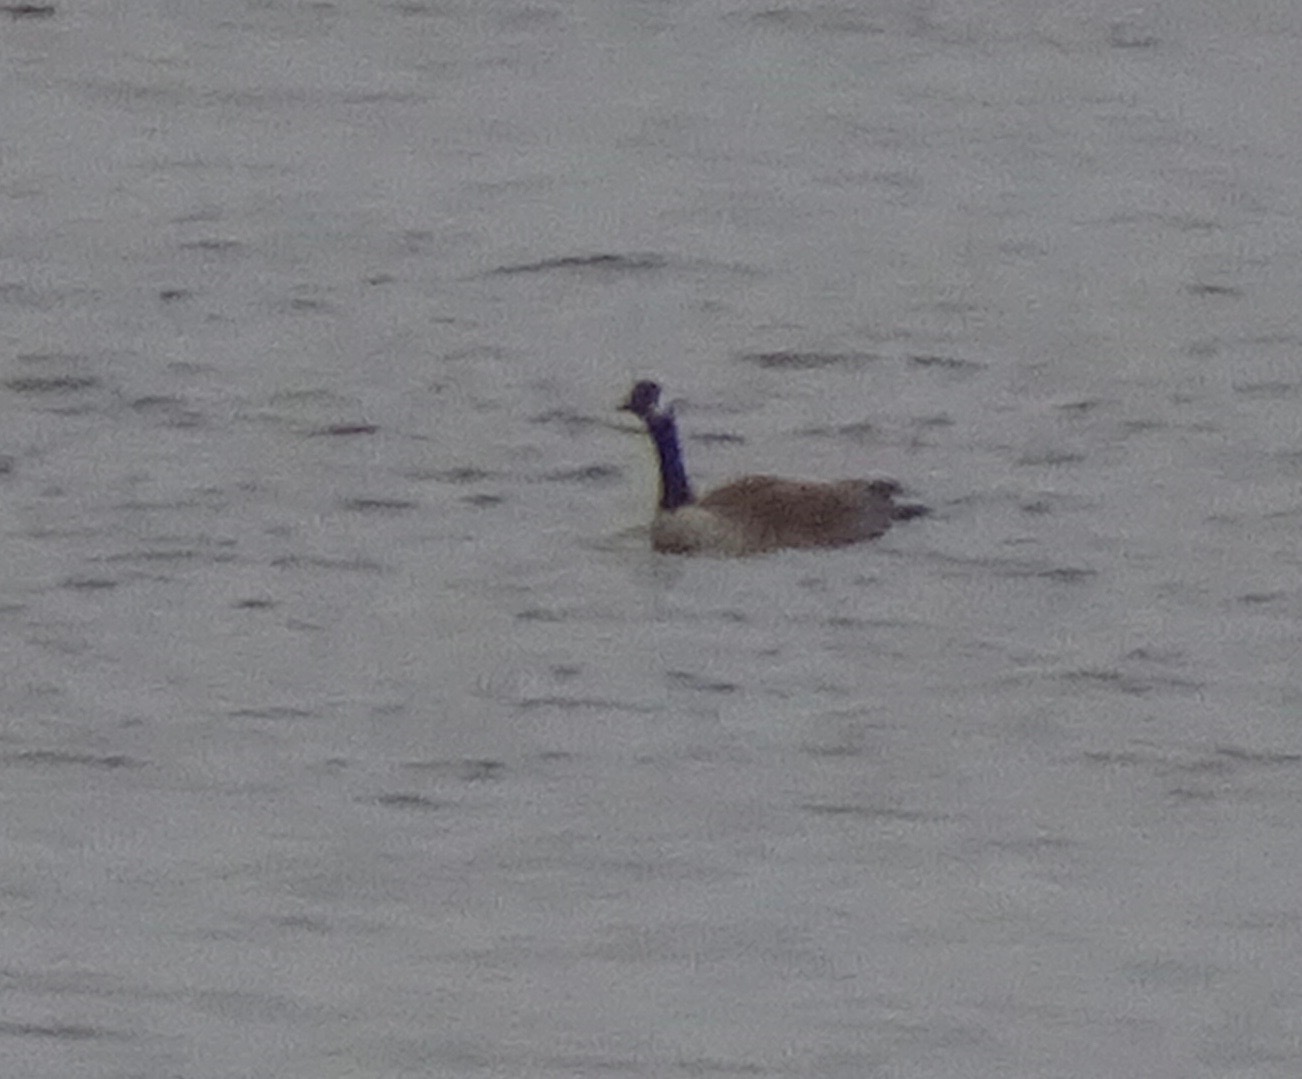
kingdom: Animalia
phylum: Chordata
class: Aves
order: Anseriformes
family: Anatidae
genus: Branta
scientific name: Branta canadensis
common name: Canada goose
